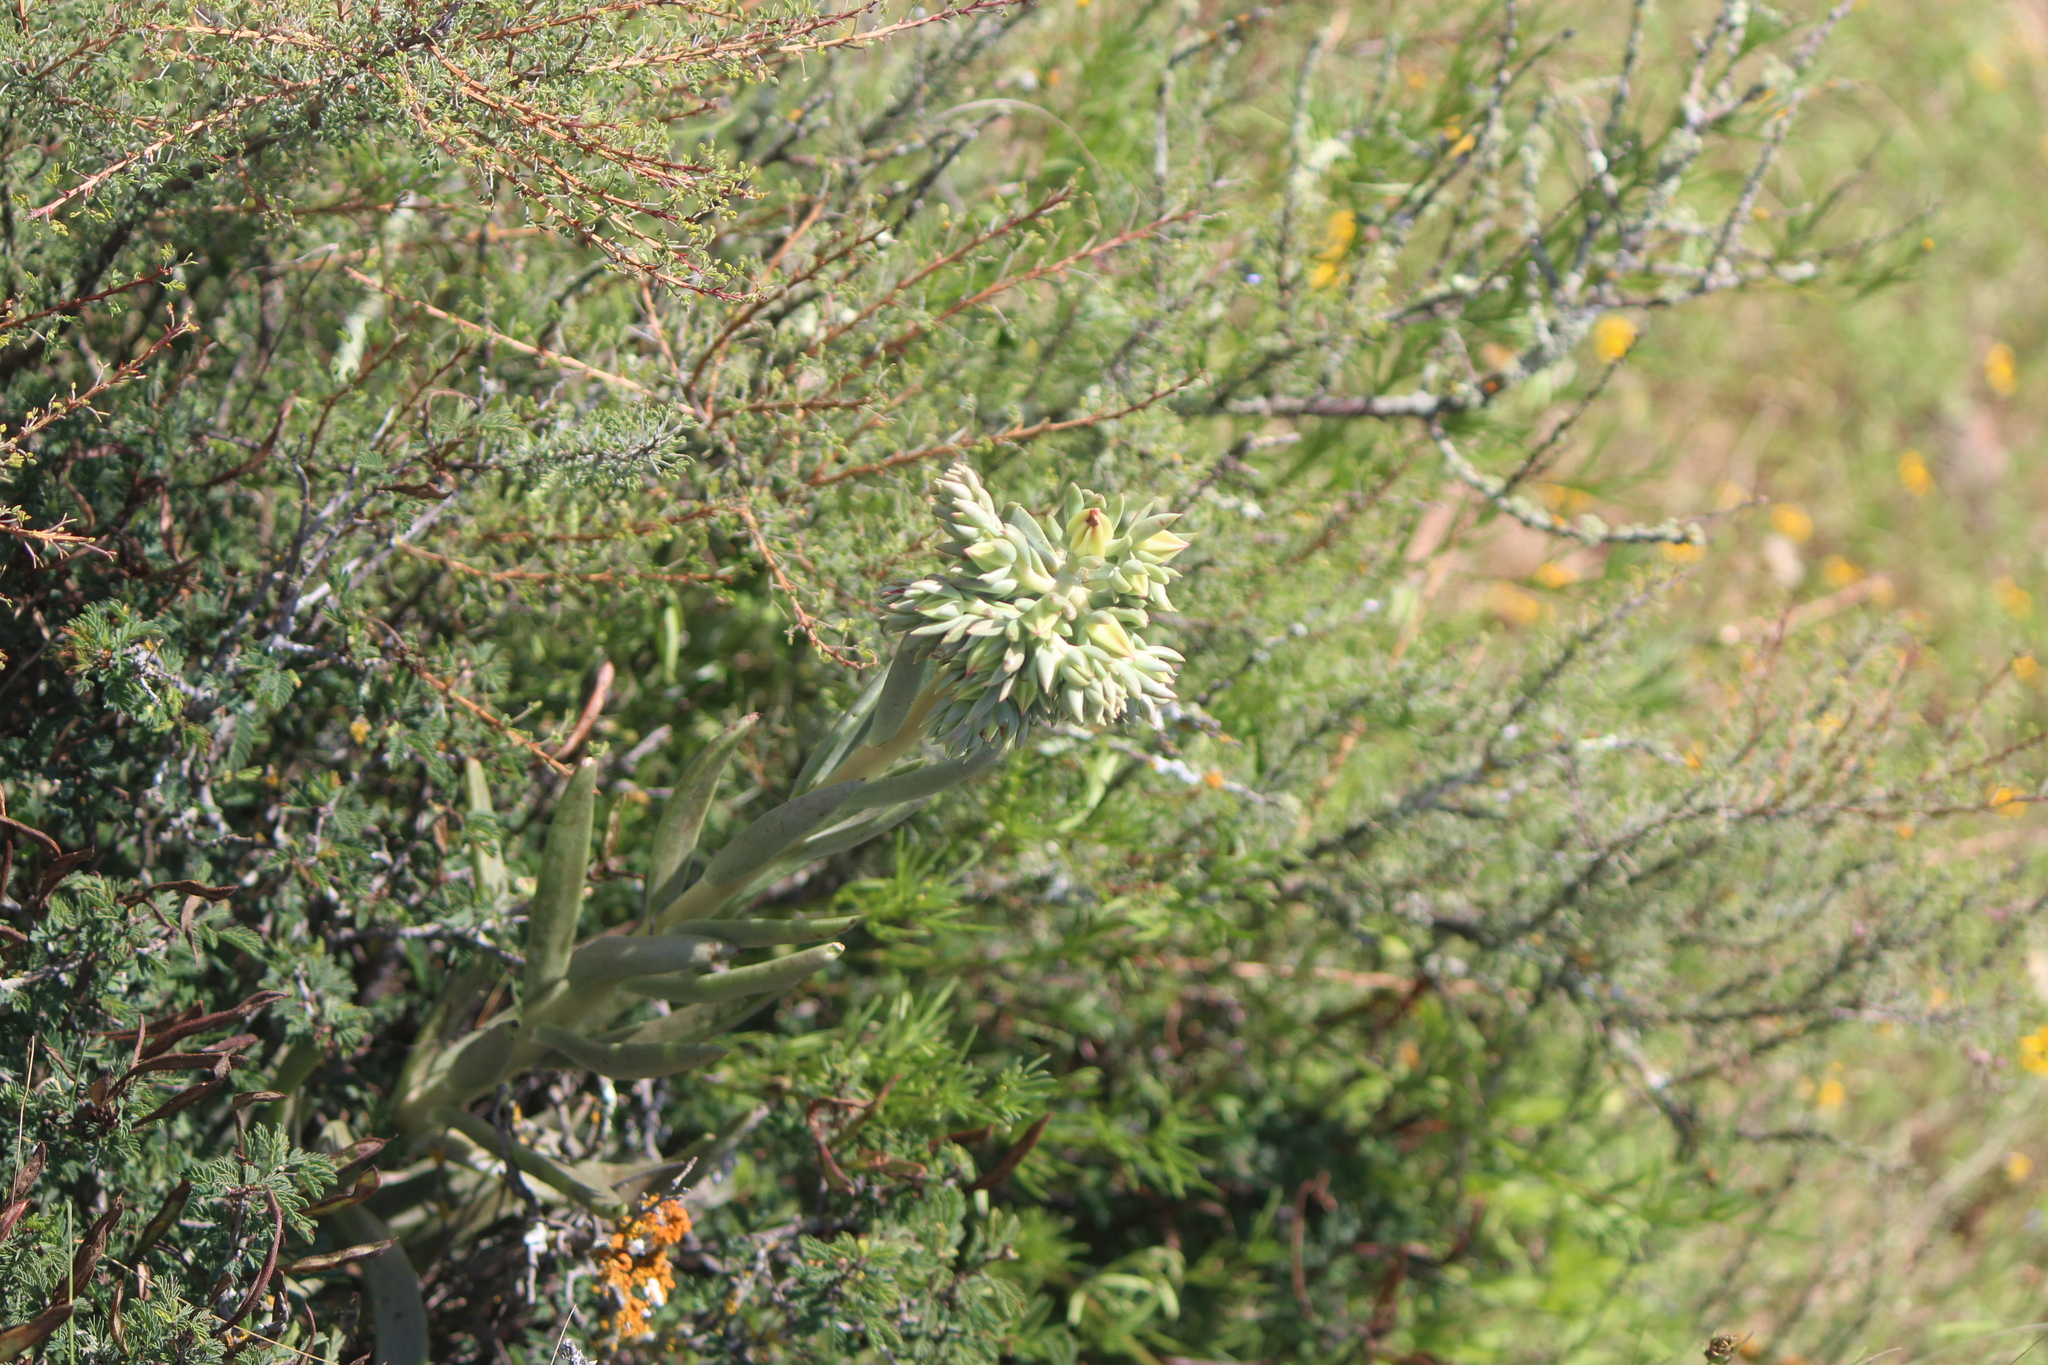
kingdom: Plantae
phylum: Tracheophyta
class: Magnoliopsida
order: Saxifragales
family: Crassulaceae
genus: Echeveria
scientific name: Echeveria bifida
